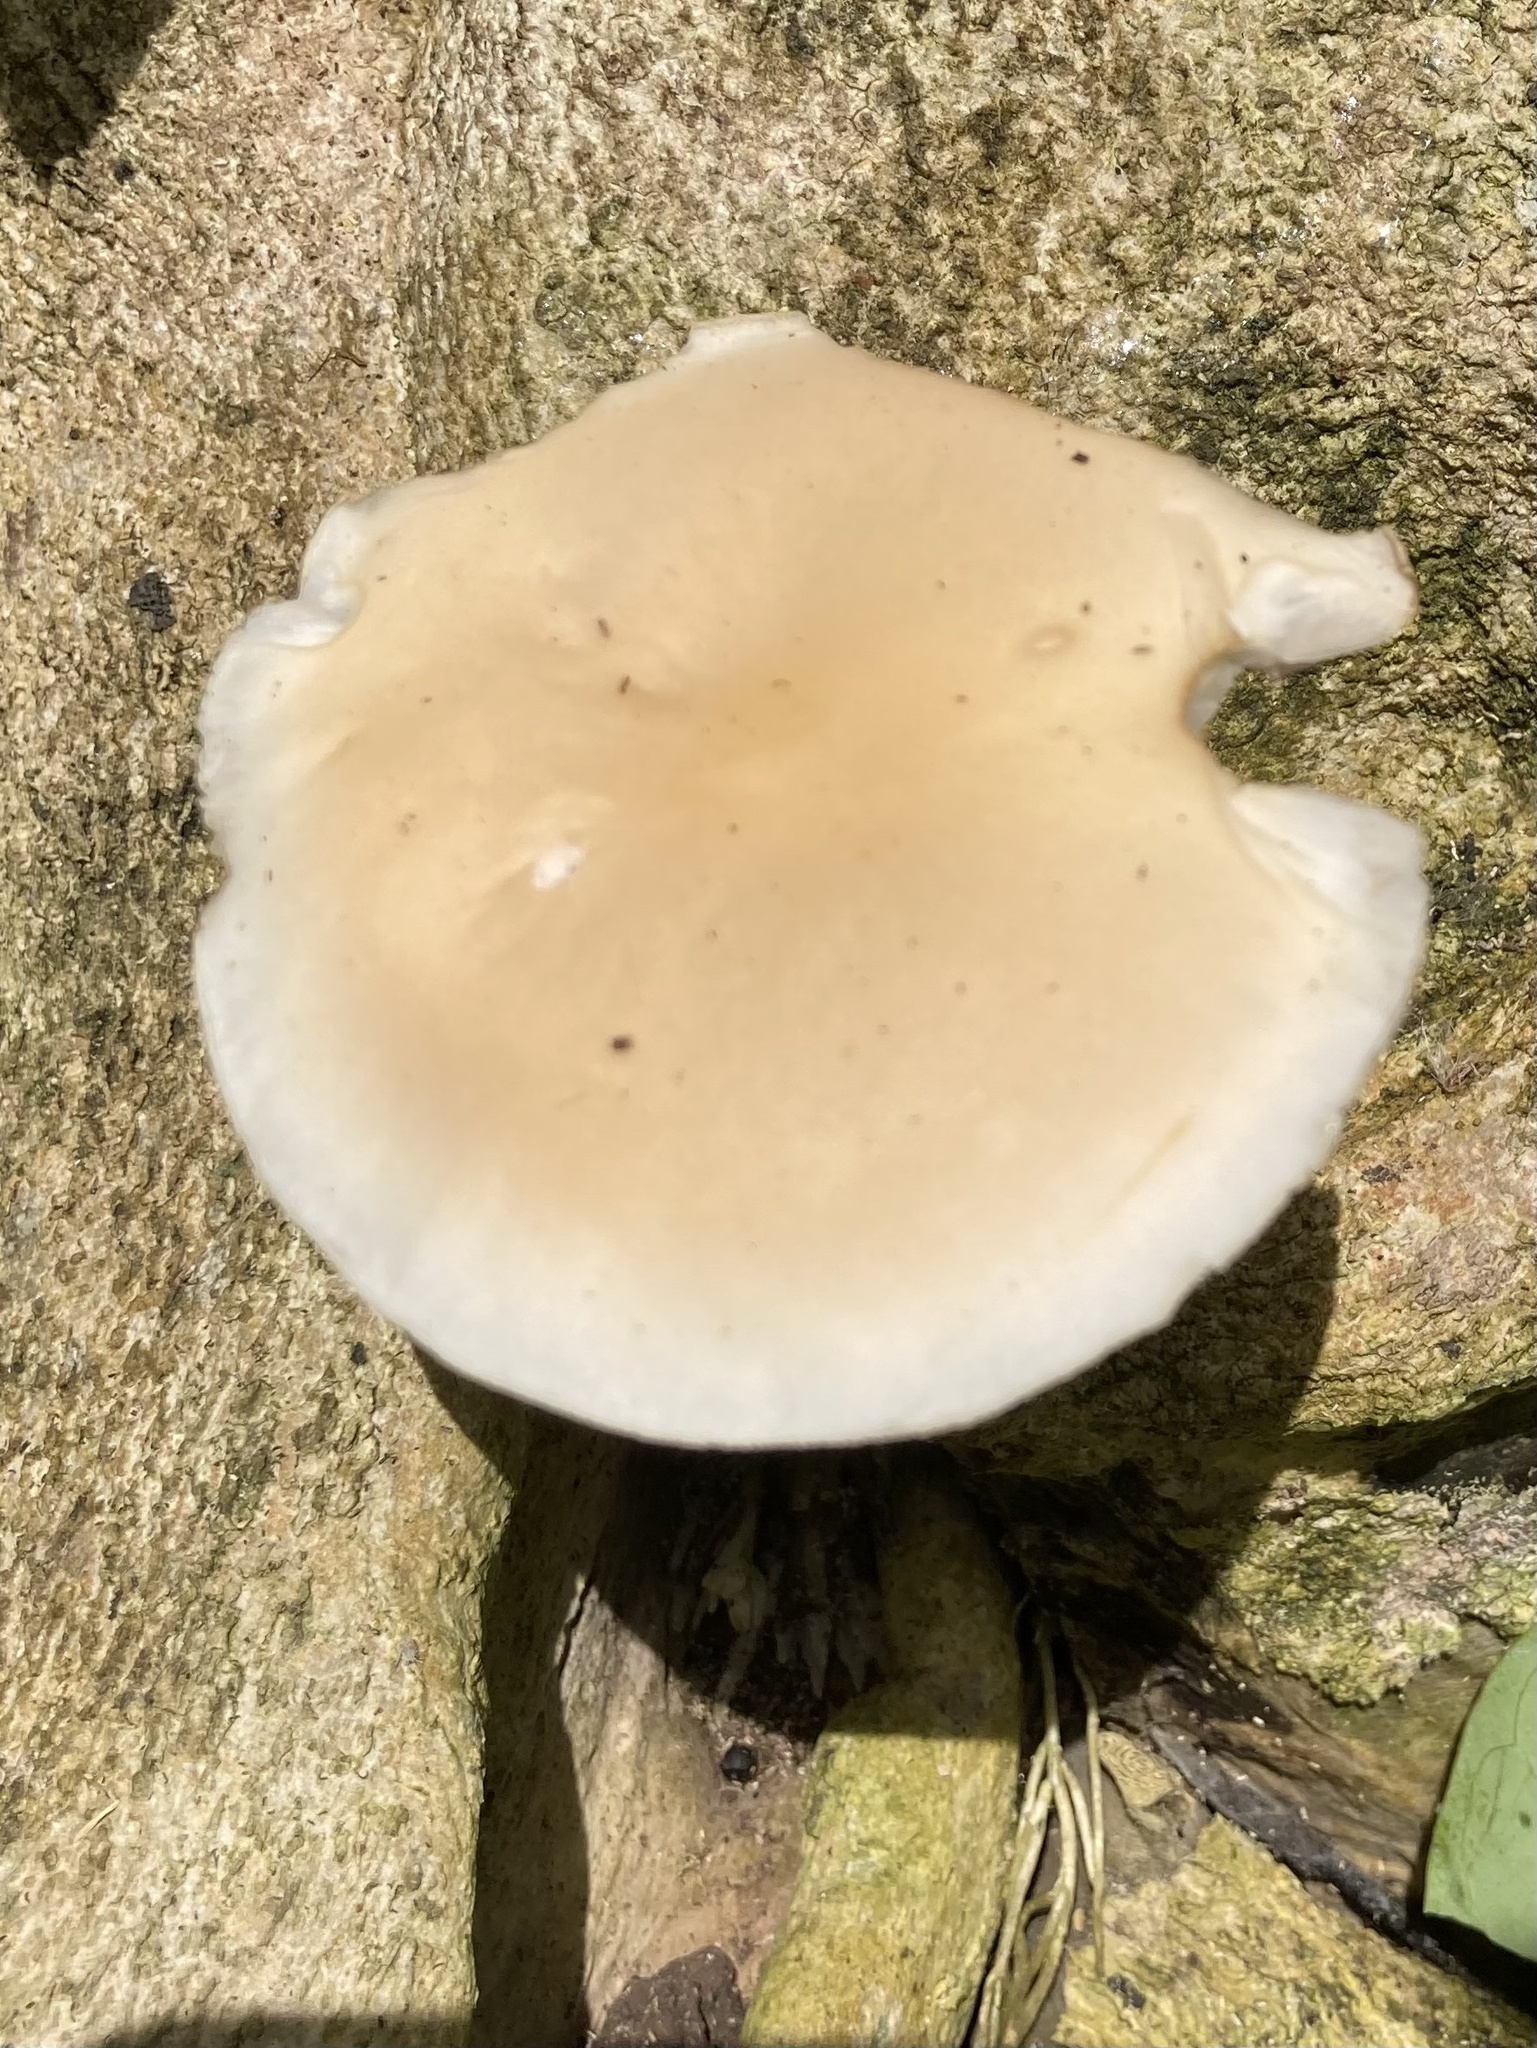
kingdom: Fungi
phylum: Basidiomycota
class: Agaricomycetes
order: Agaricales
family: Tubariaceae
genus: Cyclocybe
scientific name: Cyclocybe parasitica
